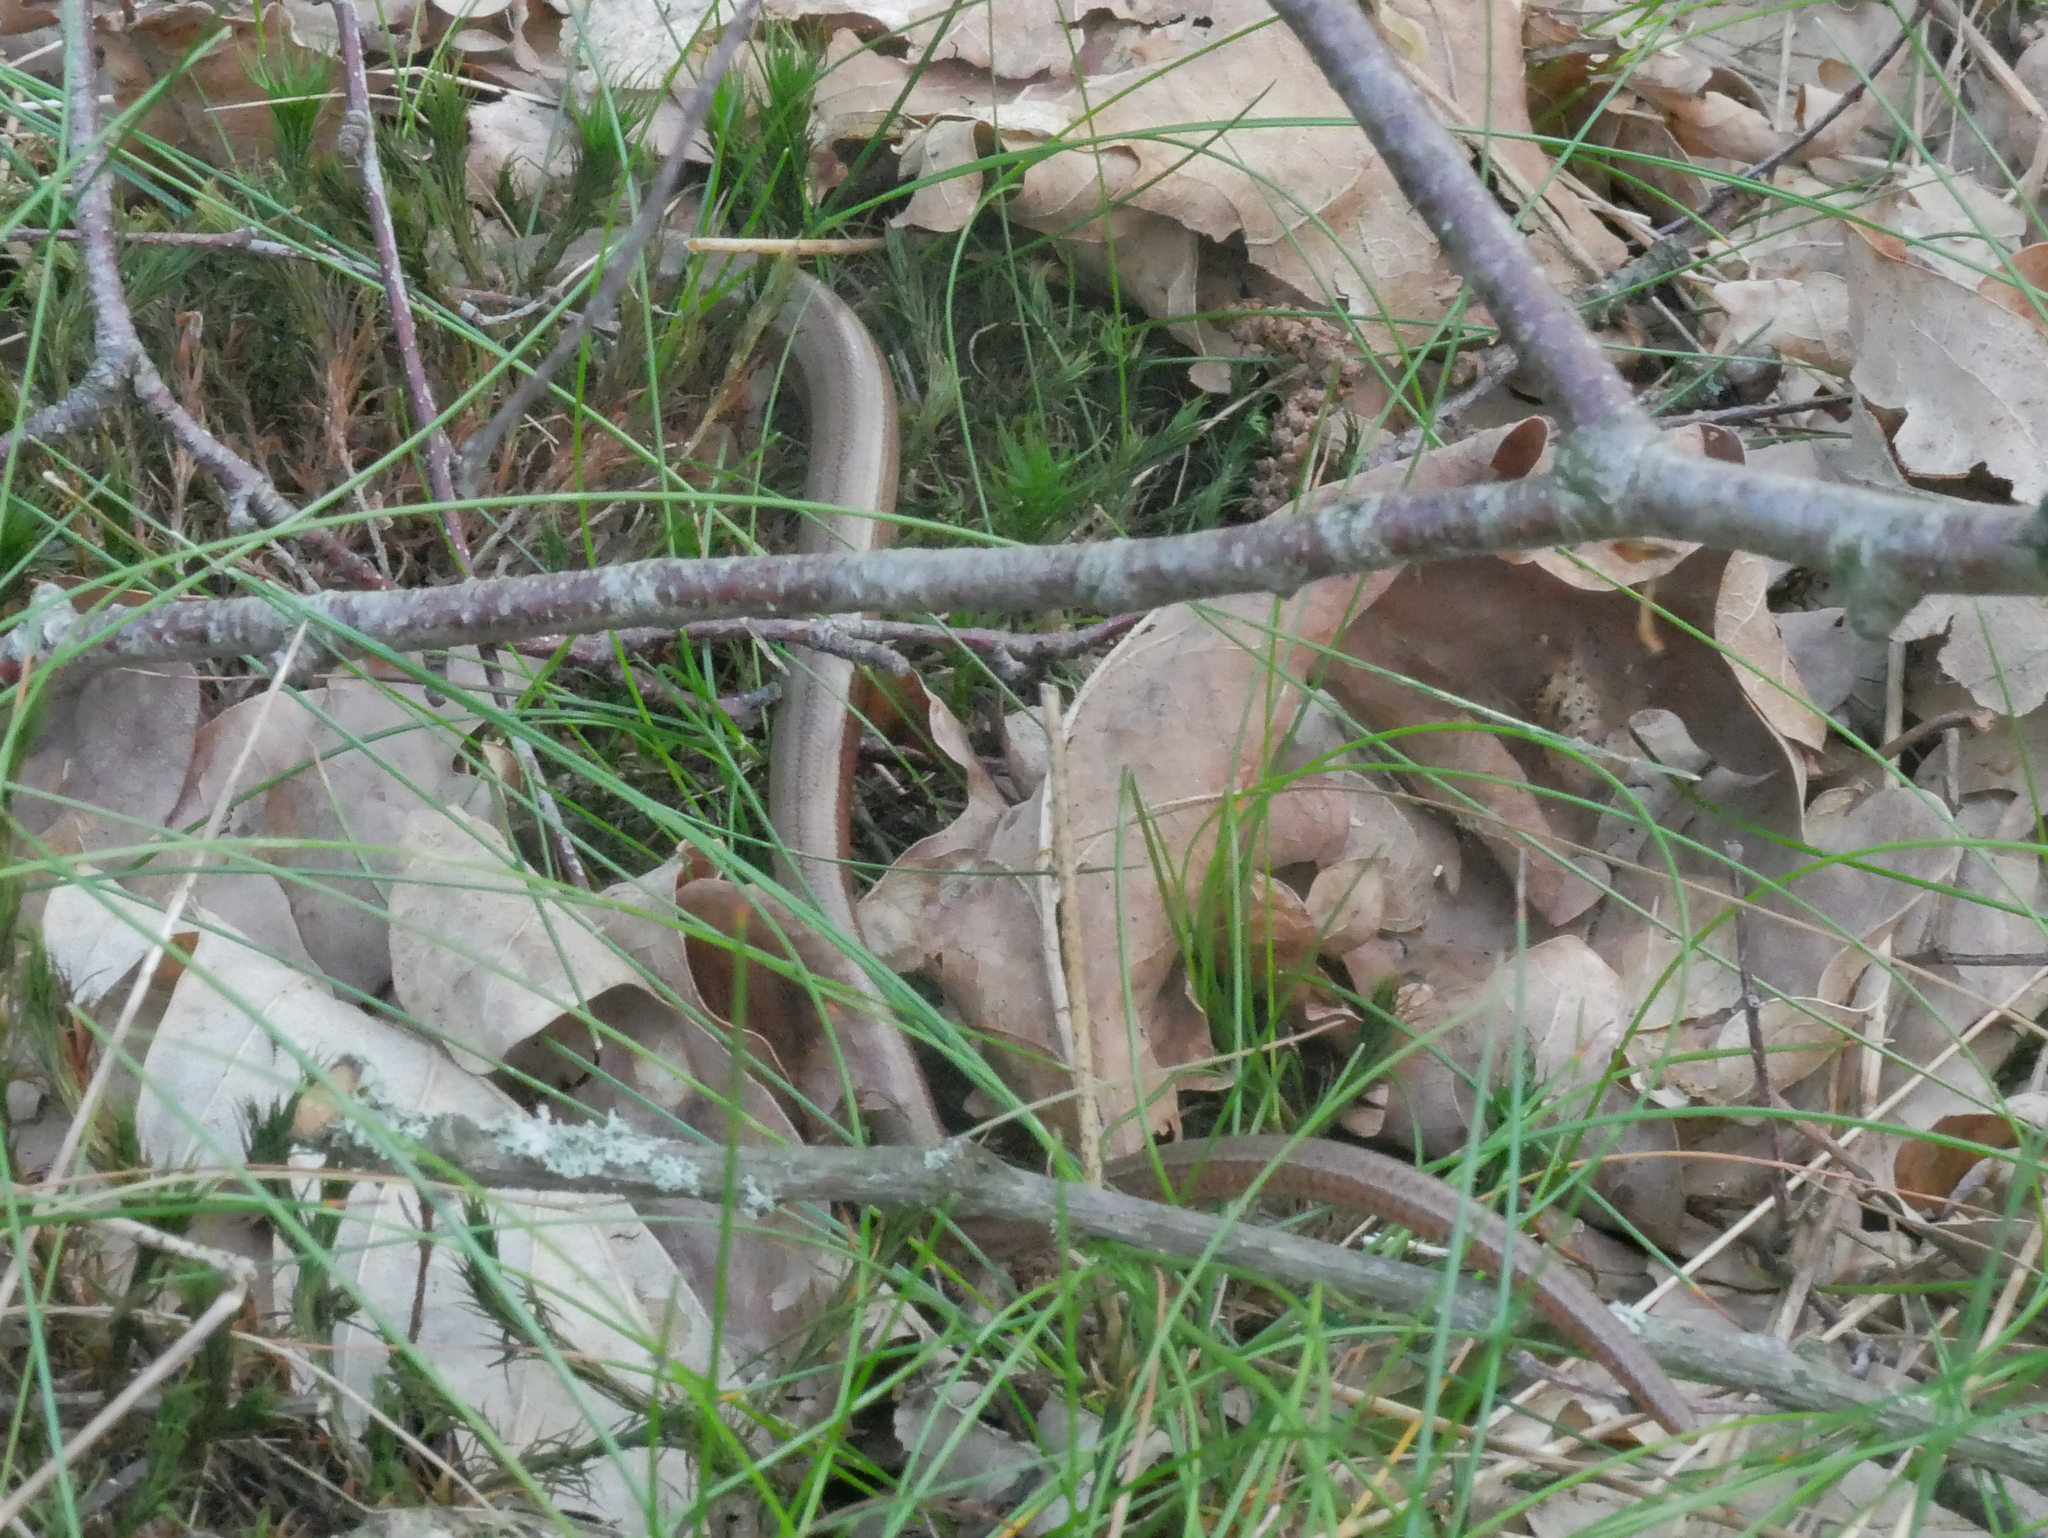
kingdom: Animalia
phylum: Chordata
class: Squamata
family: Anguidae
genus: Anguis
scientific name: Anguis fragilis
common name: Slow worm
